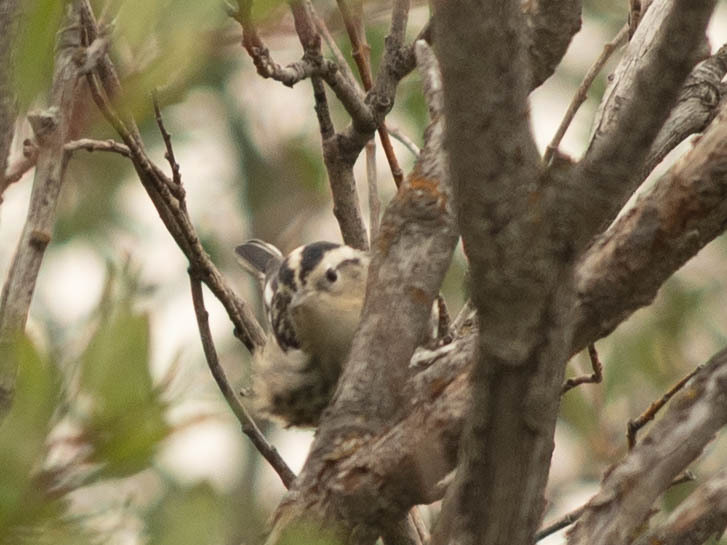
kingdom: Animalia
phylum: Chordata
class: Aves
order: Passeriformes
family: Parulidae
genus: Mniotilta
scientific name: Mniotilta varia
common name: Black-and-white warbler
